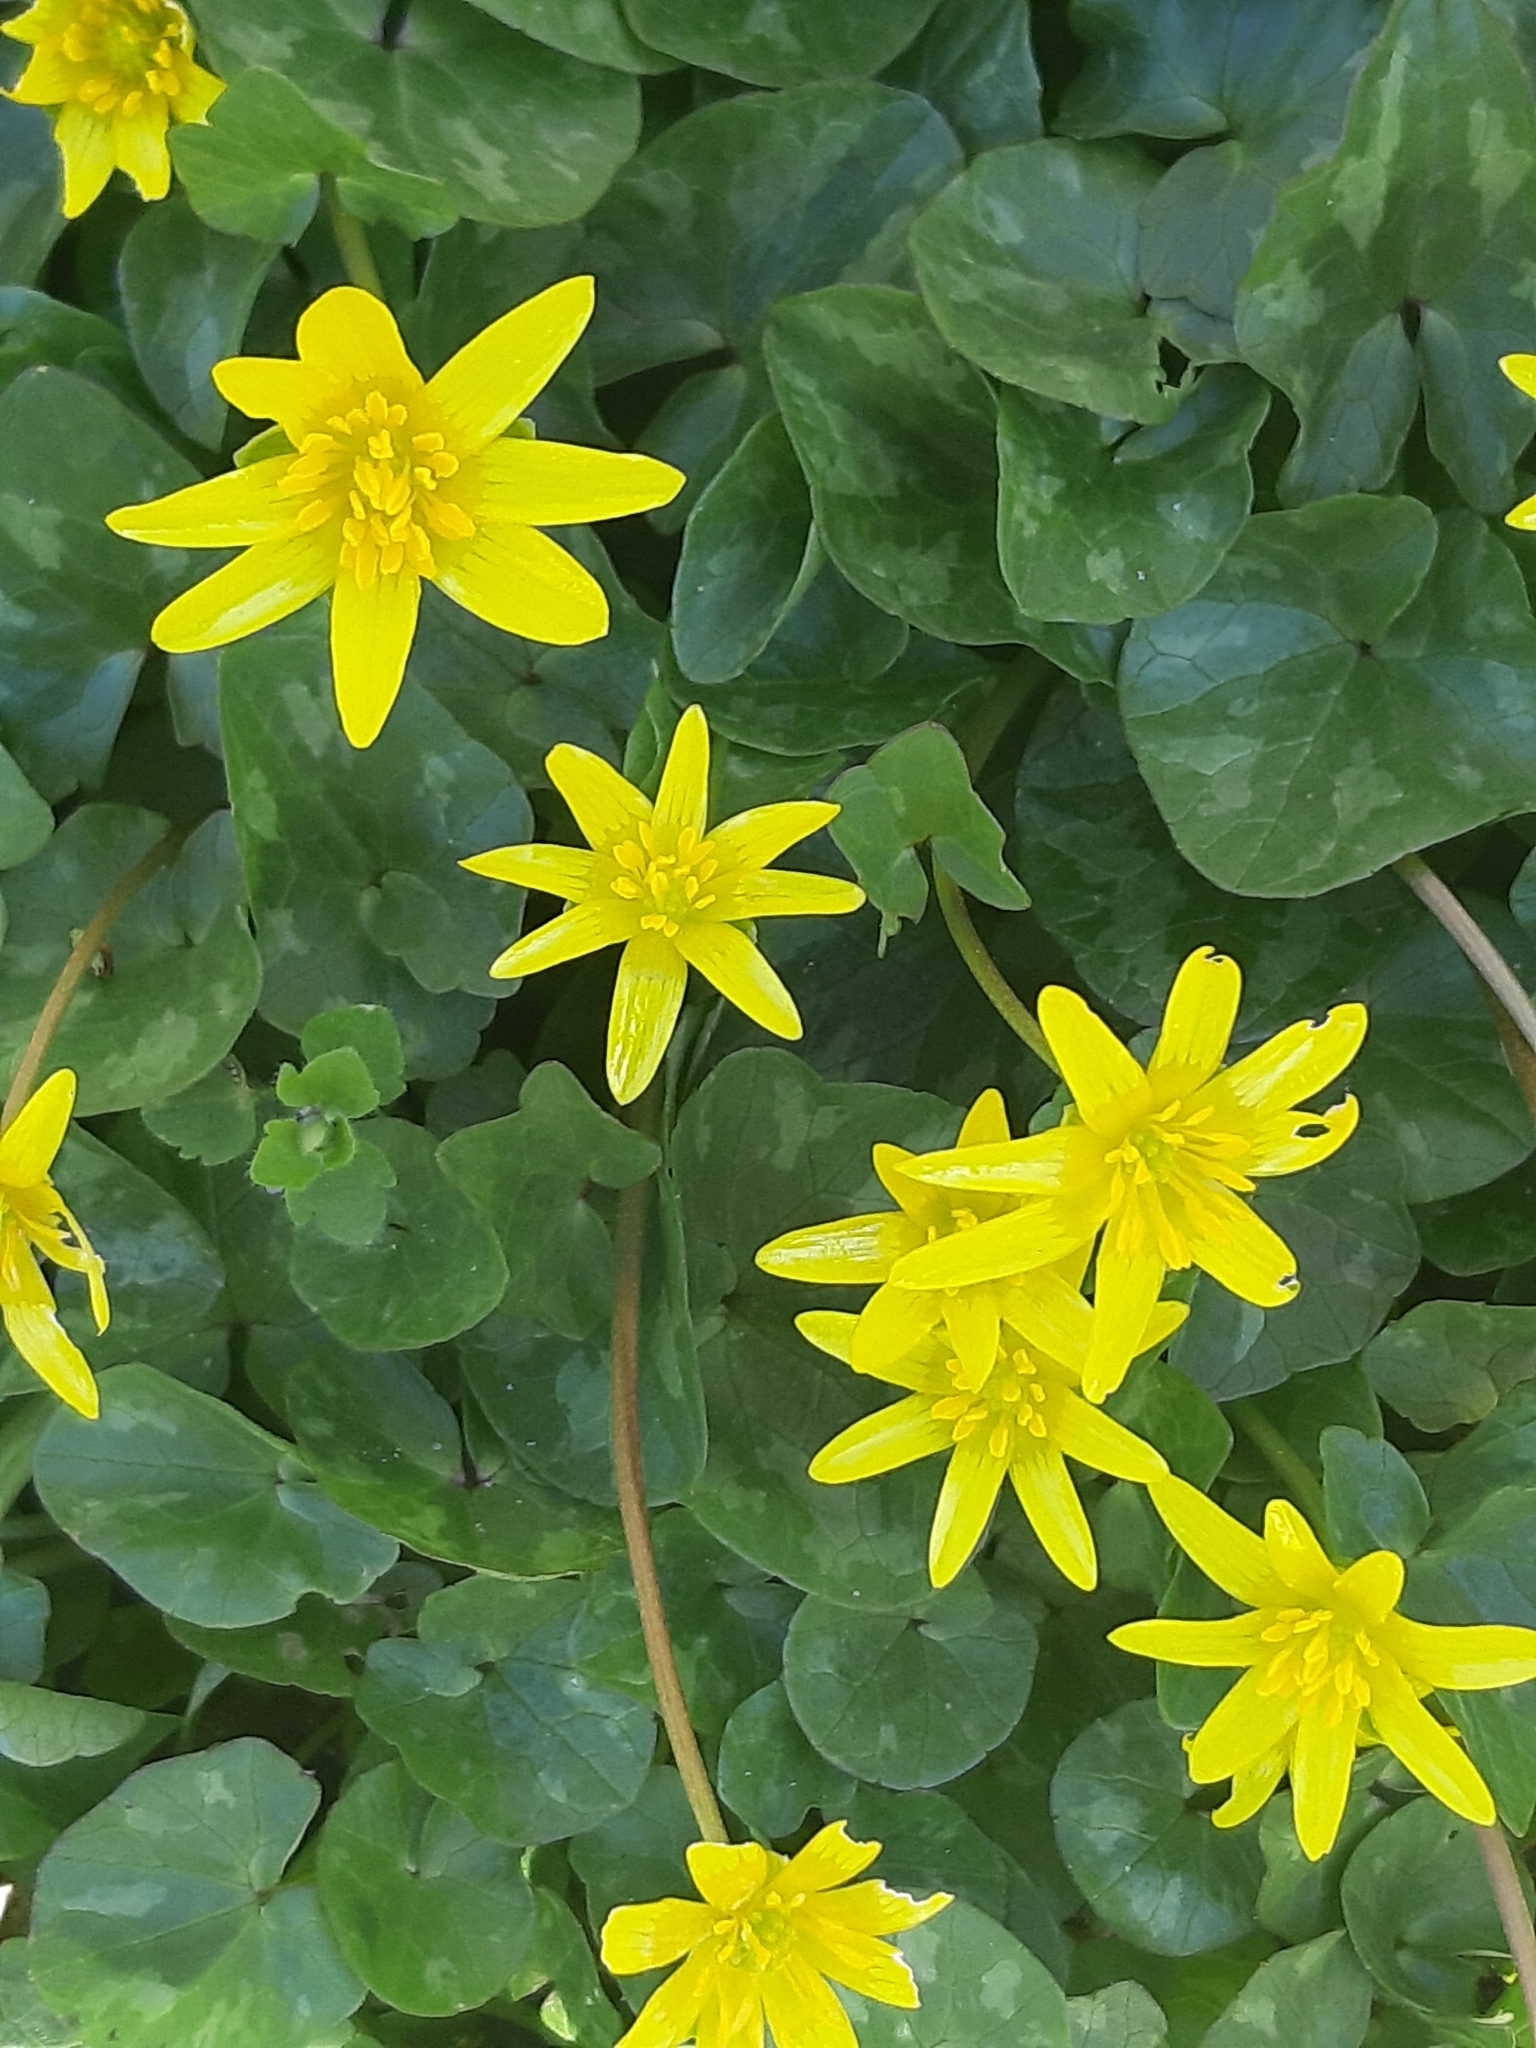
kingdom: Plantae
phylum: Tracheophyta
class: Magnoliopsida
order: Ranunculales
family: Ranunculaceae
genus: Ficaria
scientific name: Ficaria verna
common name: Lesser celandine
